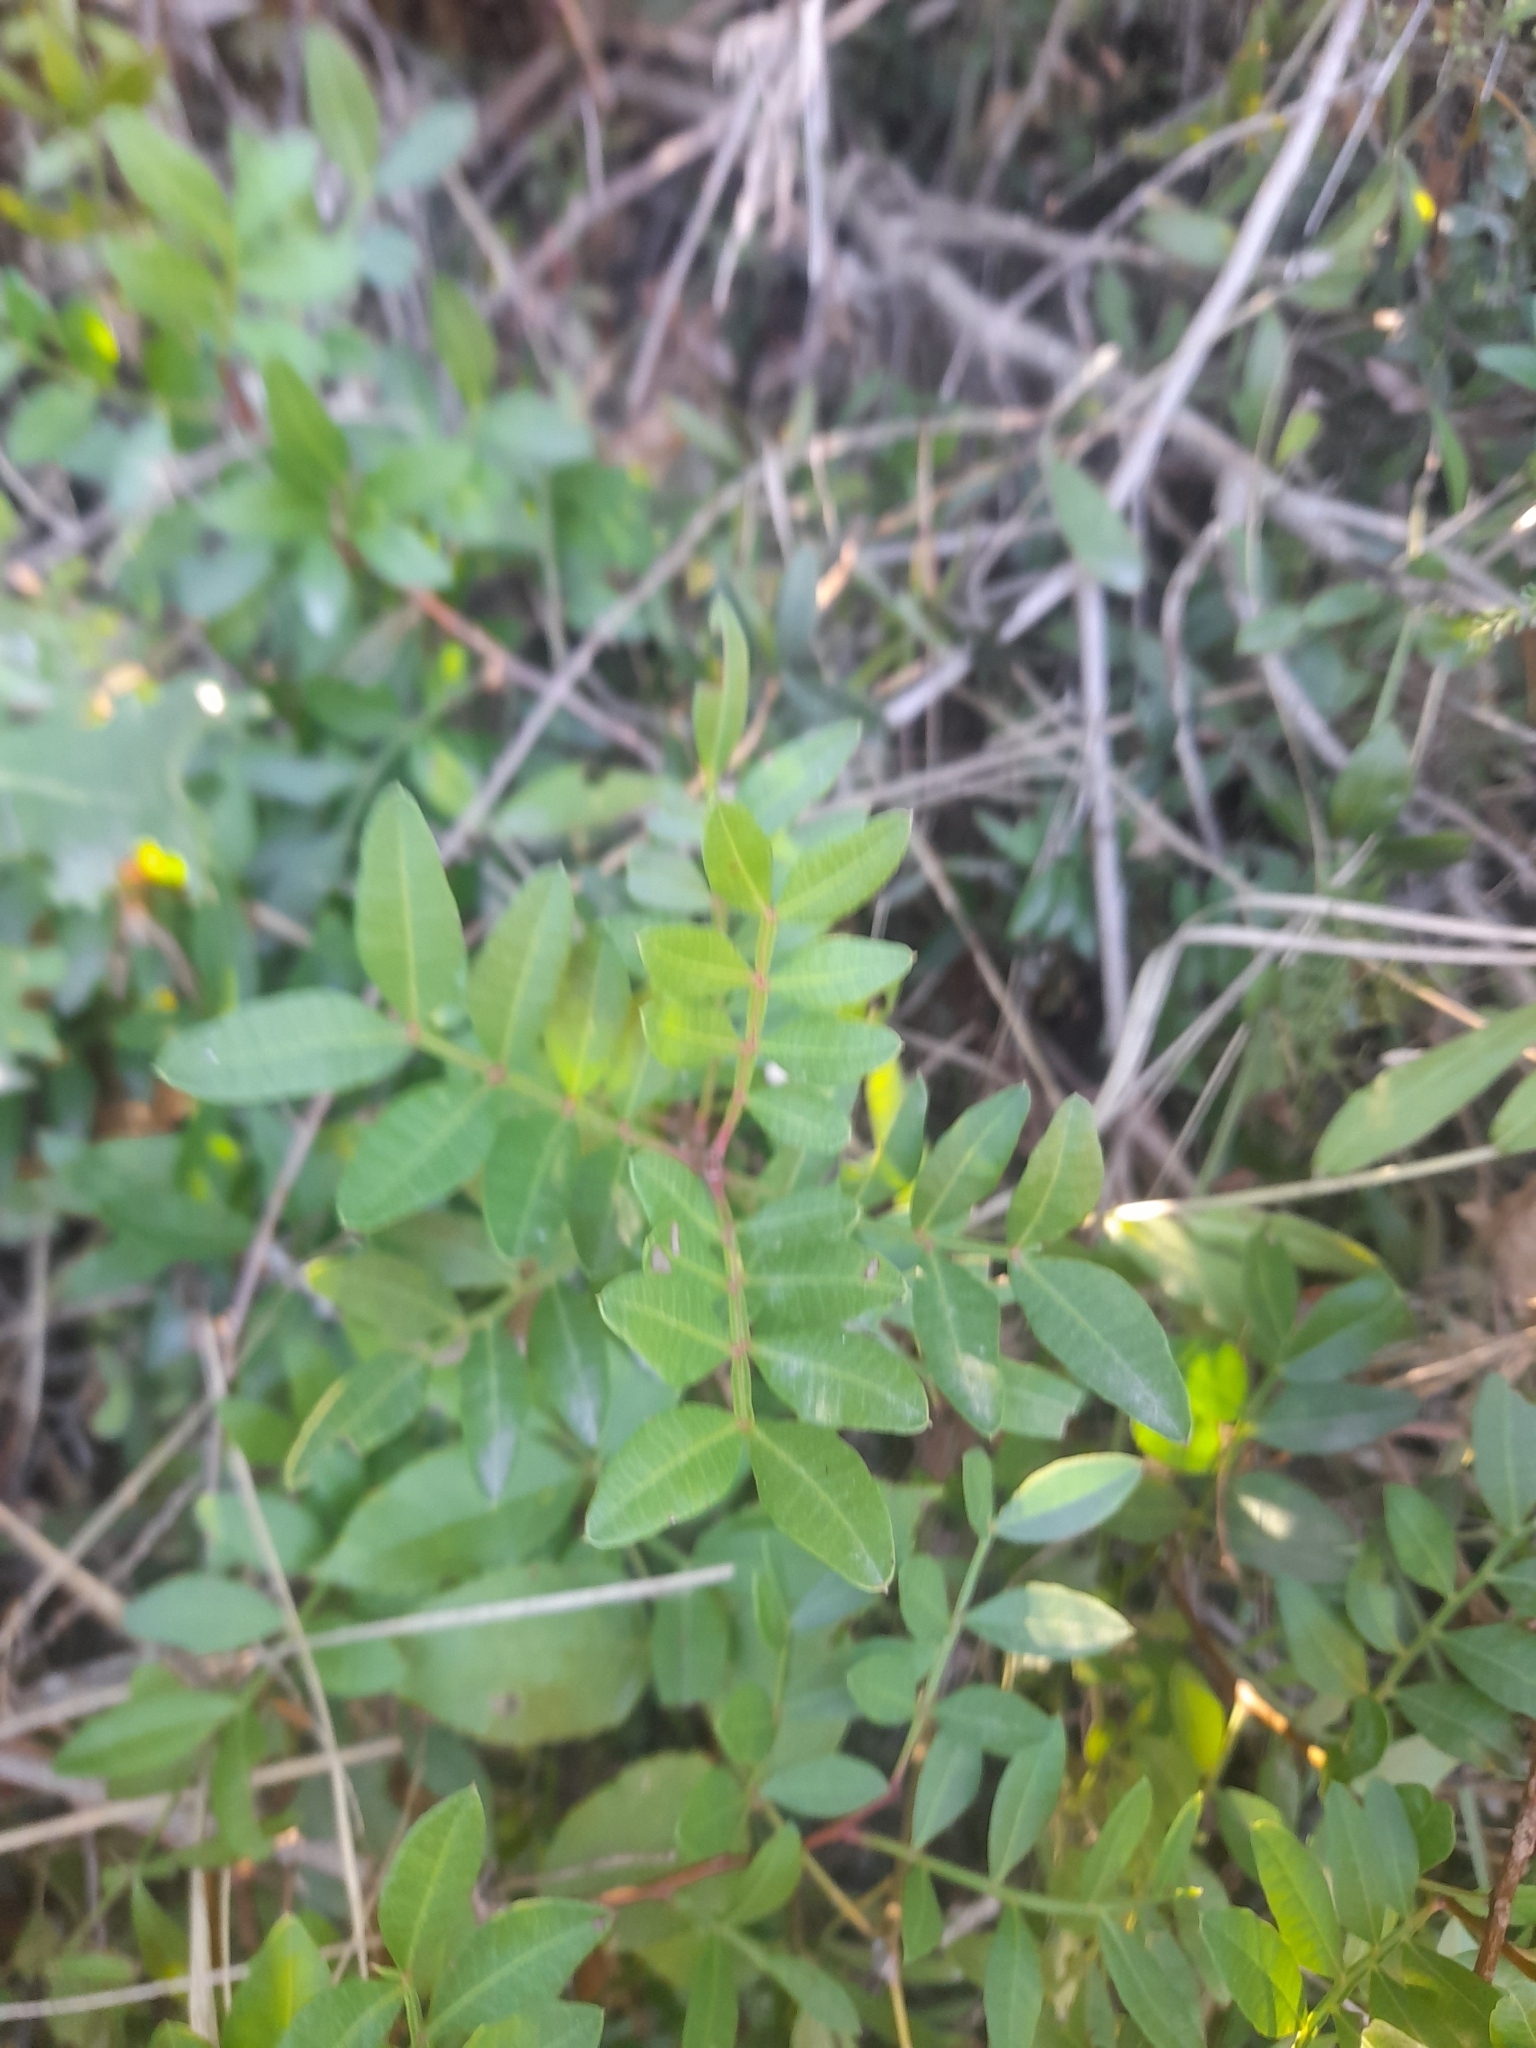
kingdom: Plantae
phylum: Tracheophyta
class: Magnoliopsida
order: Sapindales
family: Anacardiaceae
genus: Pistacia
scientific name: Pistacia lentiscus
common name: Lentisk
